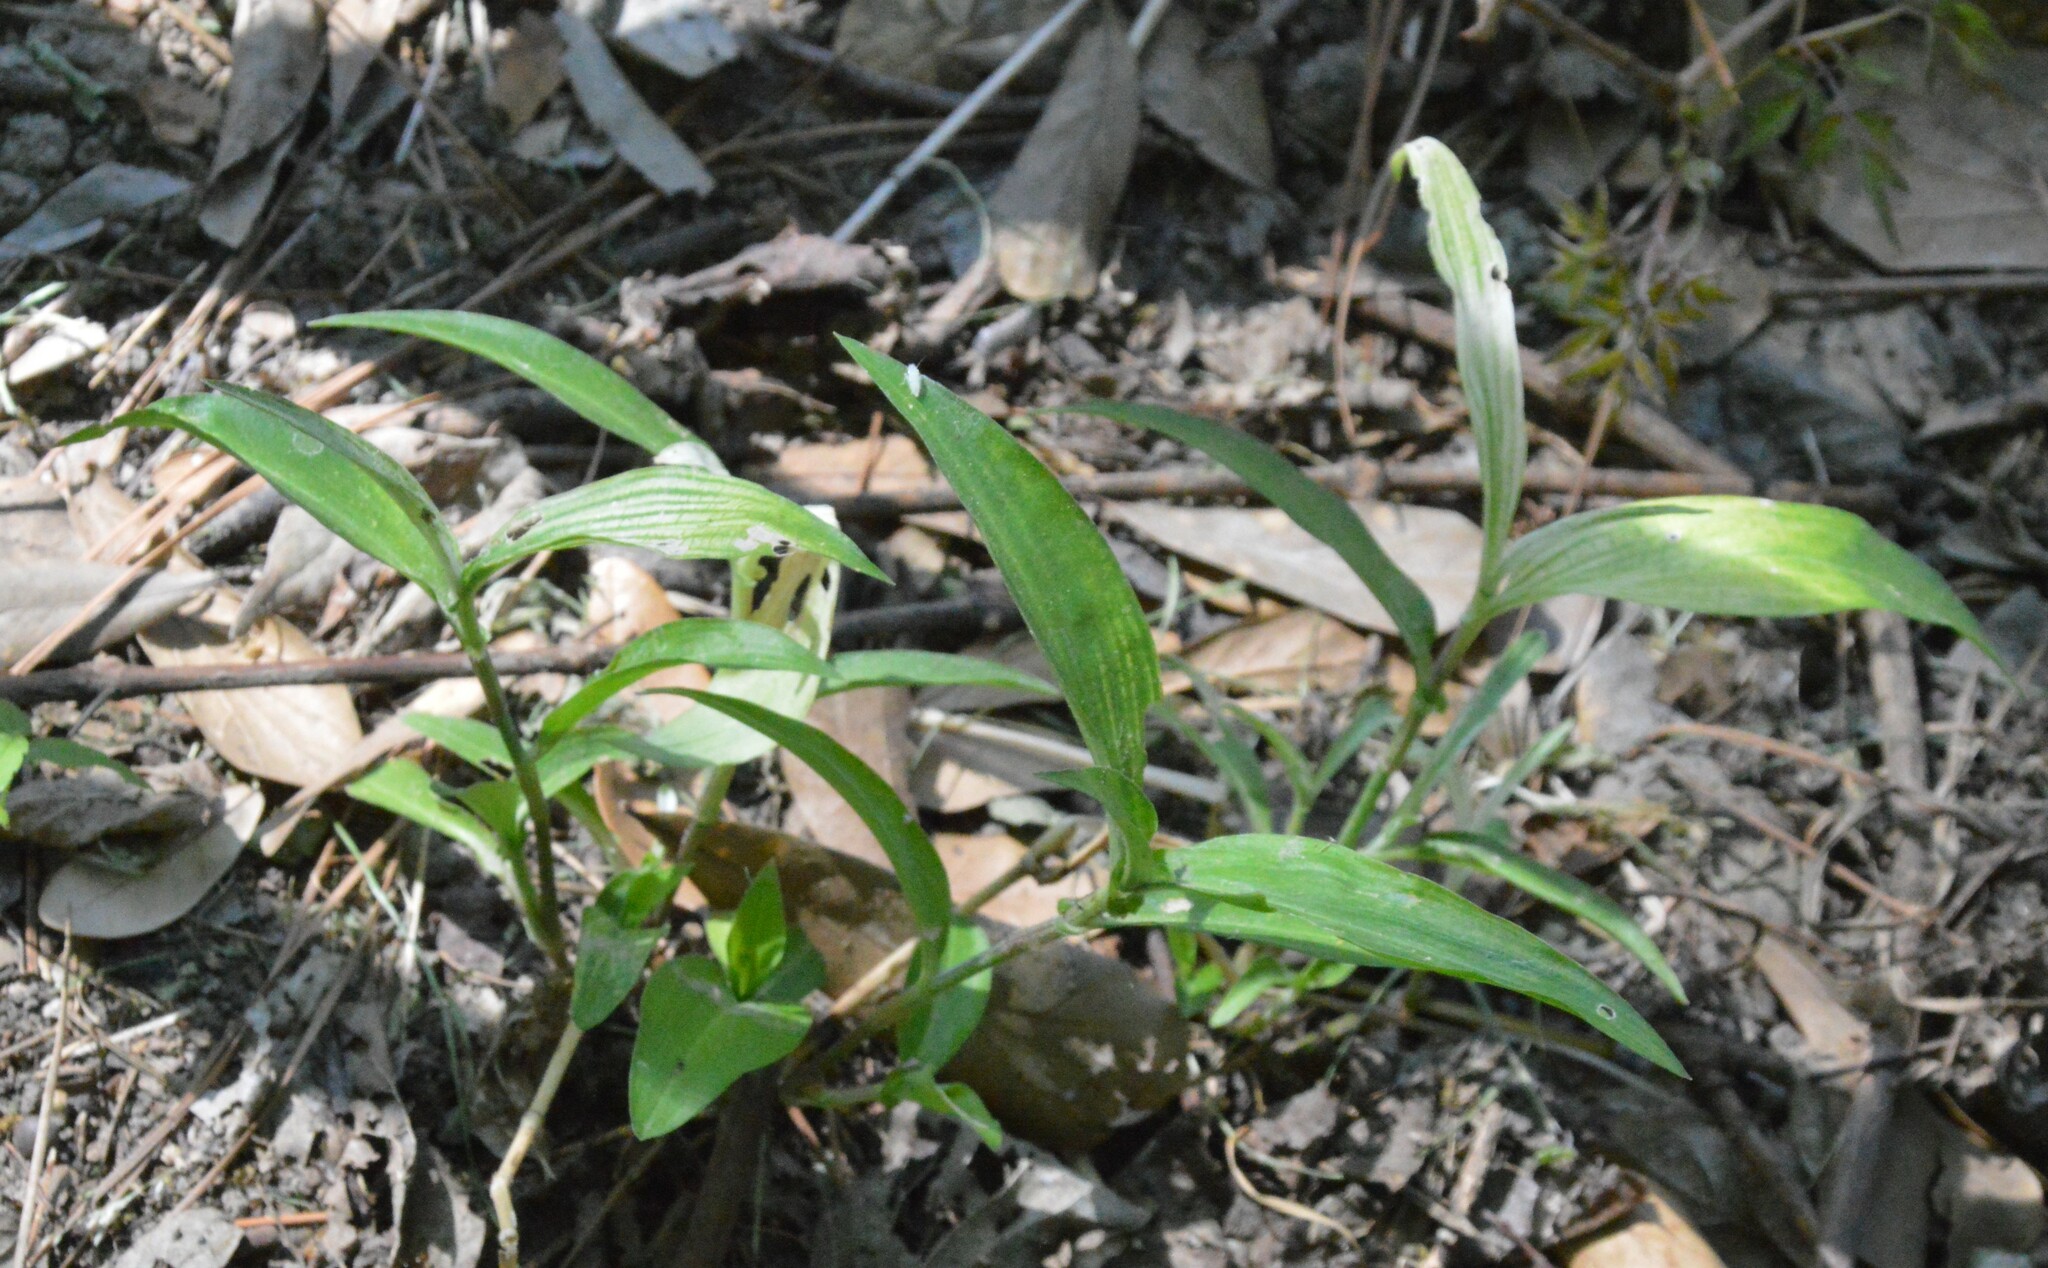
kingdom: Plantae
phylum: Tracheophyta
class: Liliopsida
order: Commelinales
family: Commelinaceae
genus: Commelina
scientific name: Commelina erecta
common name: Blousel blommetjie
